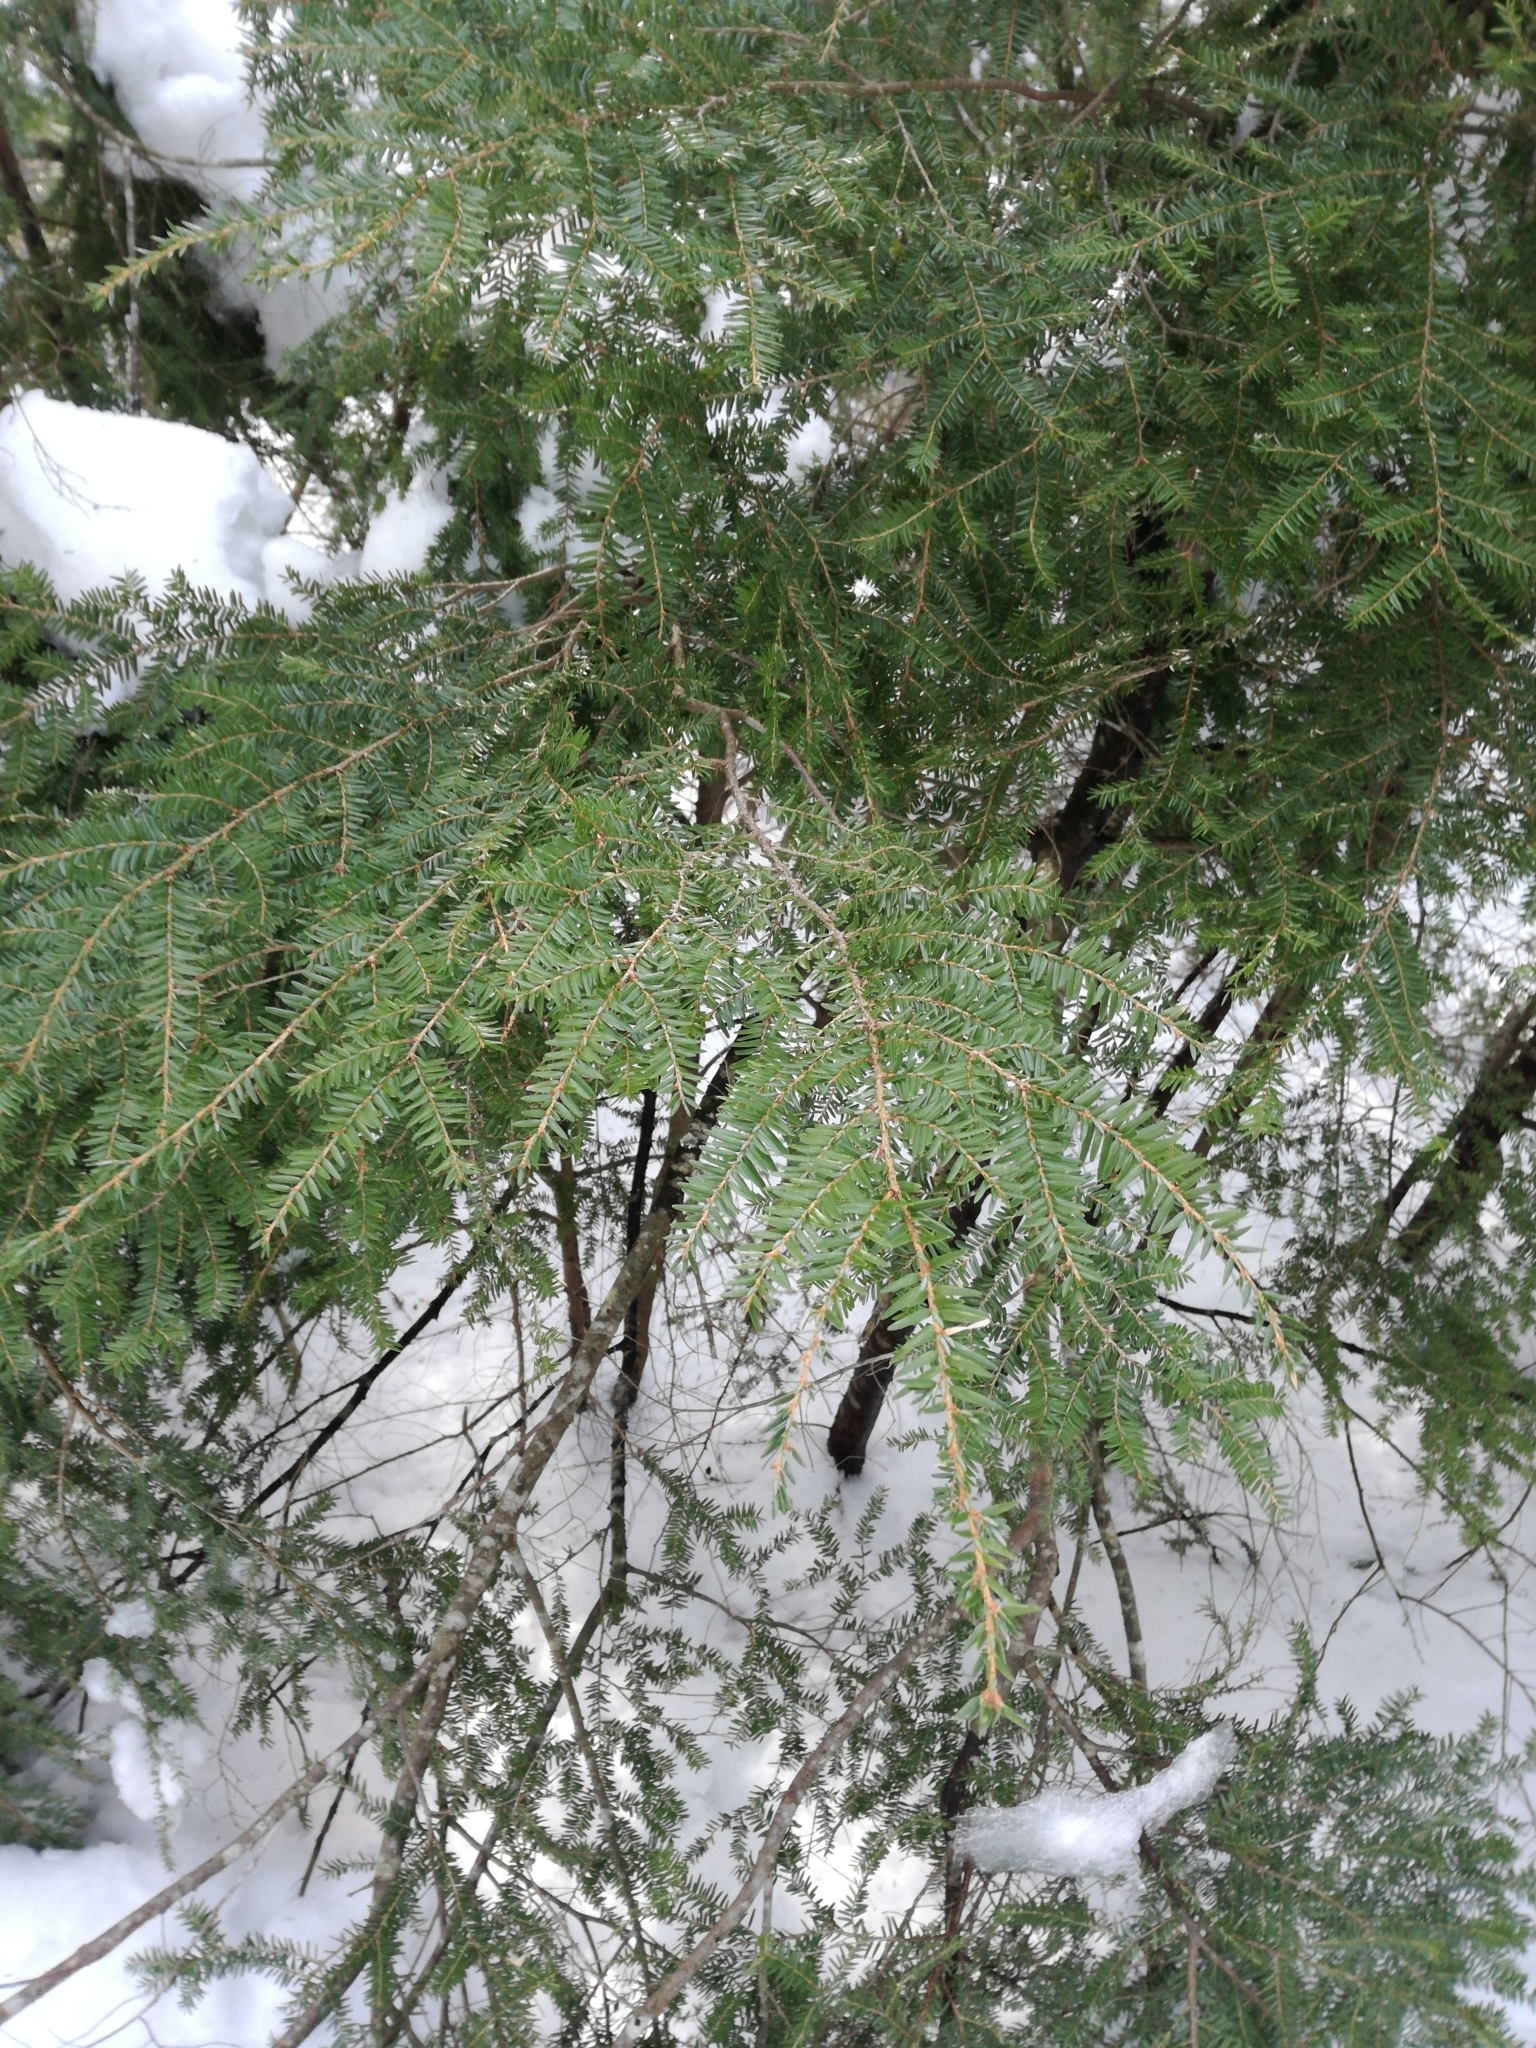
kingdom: Plantae
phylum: Tracheophyta
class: Pinopsida
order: Pinales
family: Pinaceae
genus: Tsuga
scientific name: Tsuga canadensis
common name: Eastern hemlock
